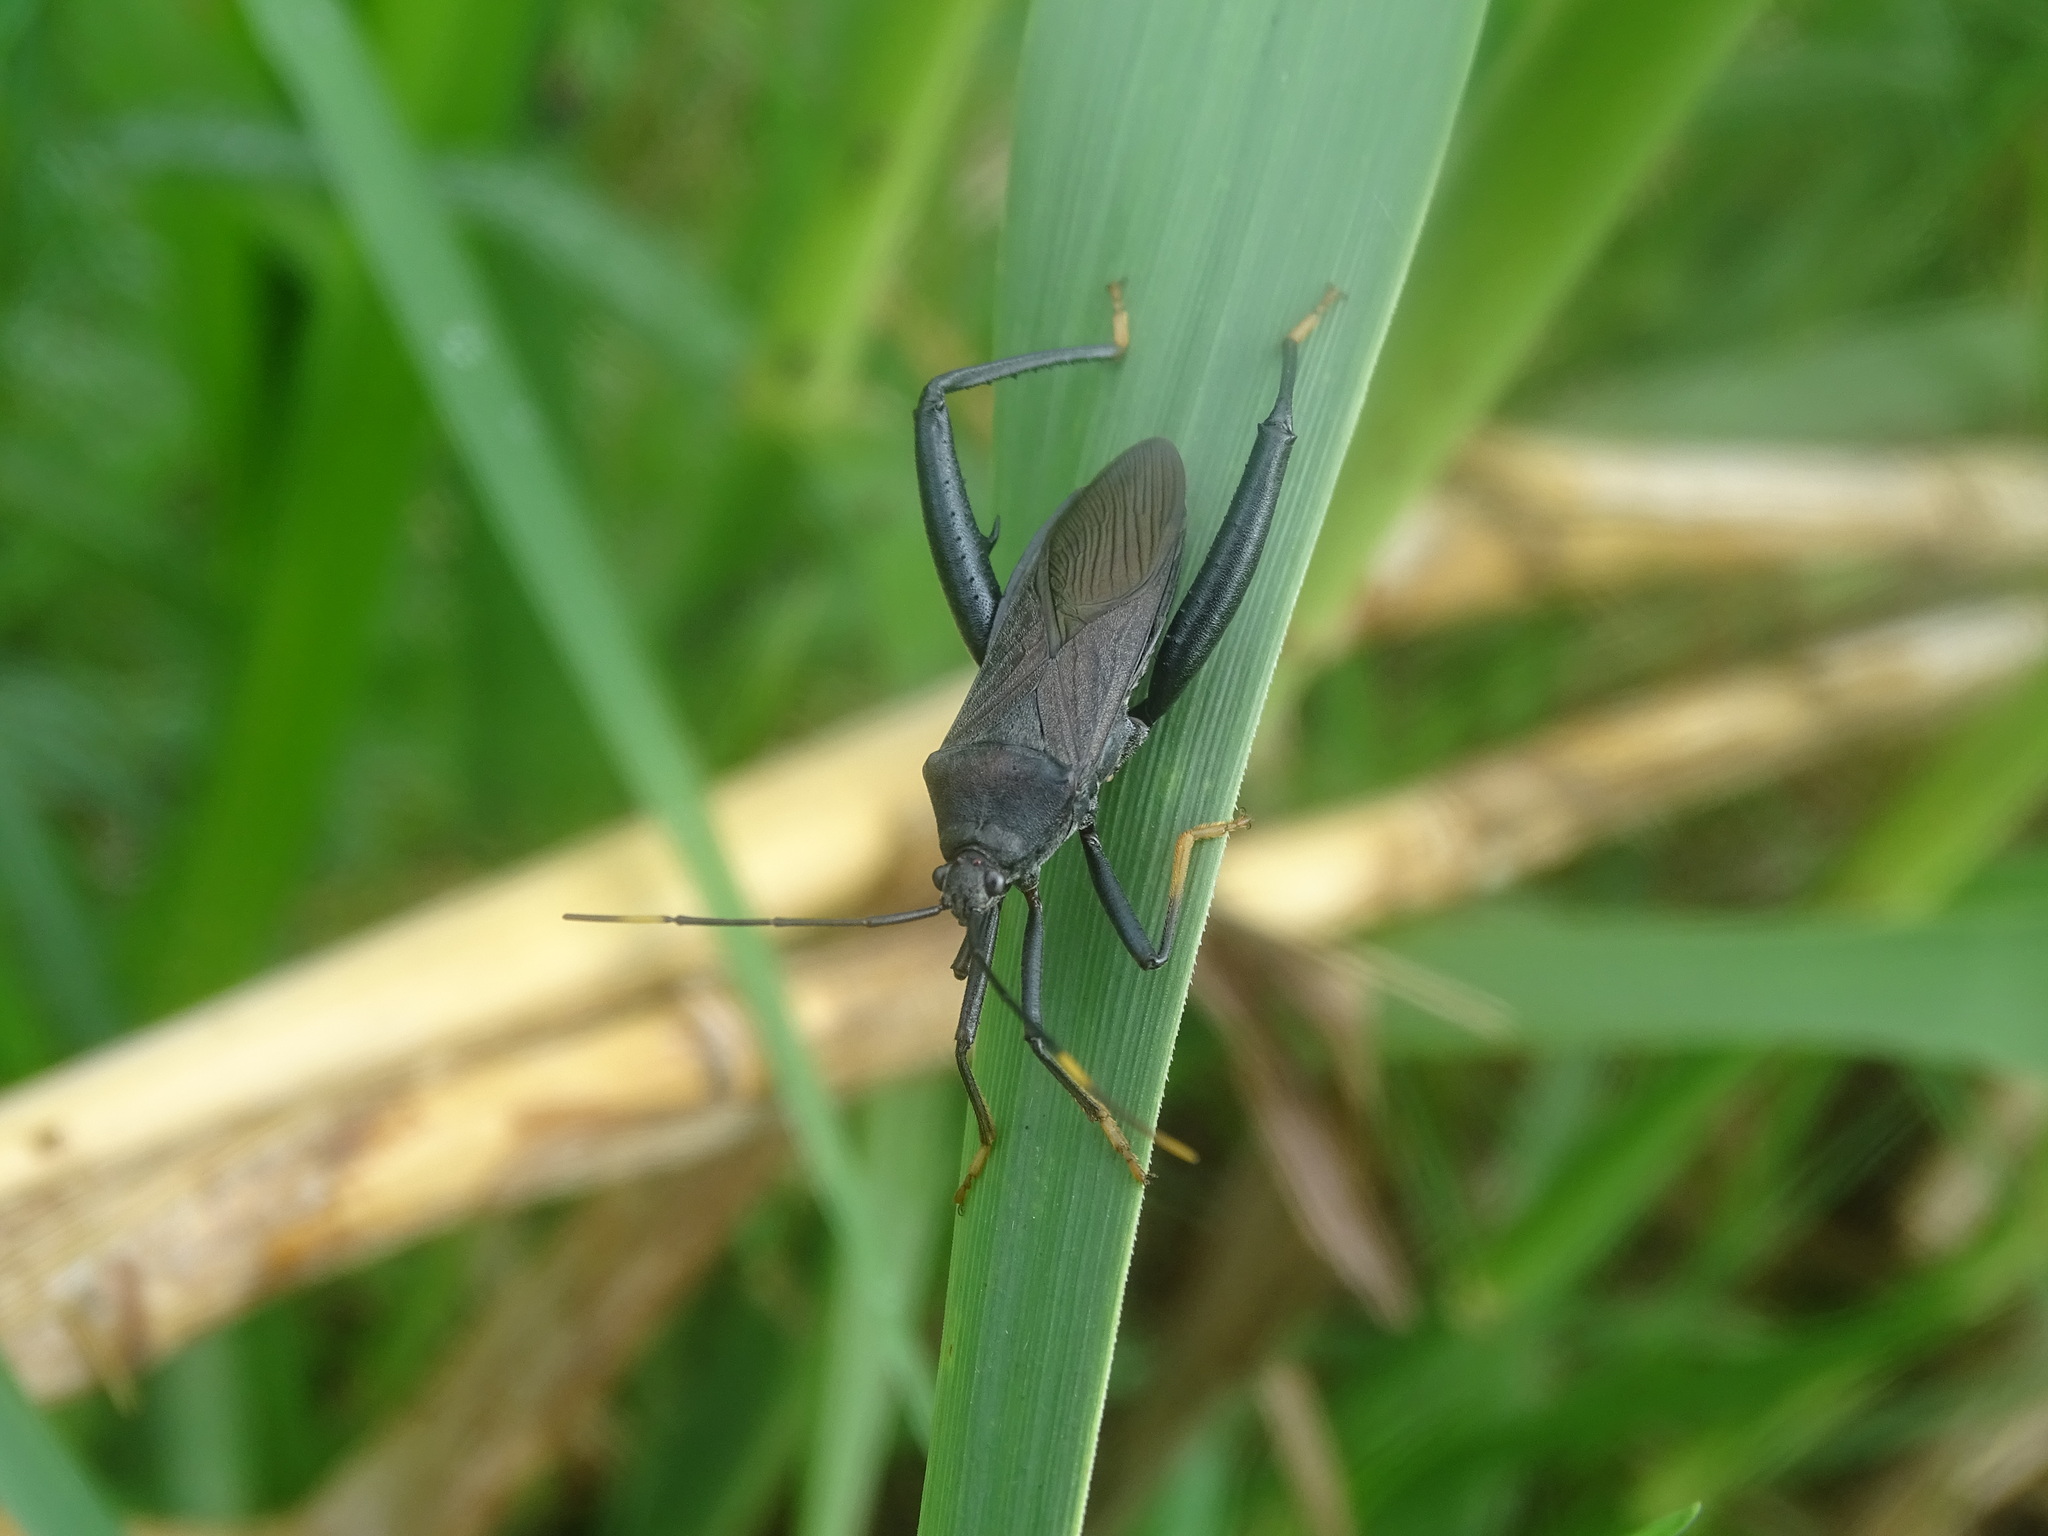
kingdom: Animalia
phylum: Arthropoda
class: Insecta
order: Hemiptera
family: Coreidae
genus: Notobitus
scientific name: Notobitus meleagris
